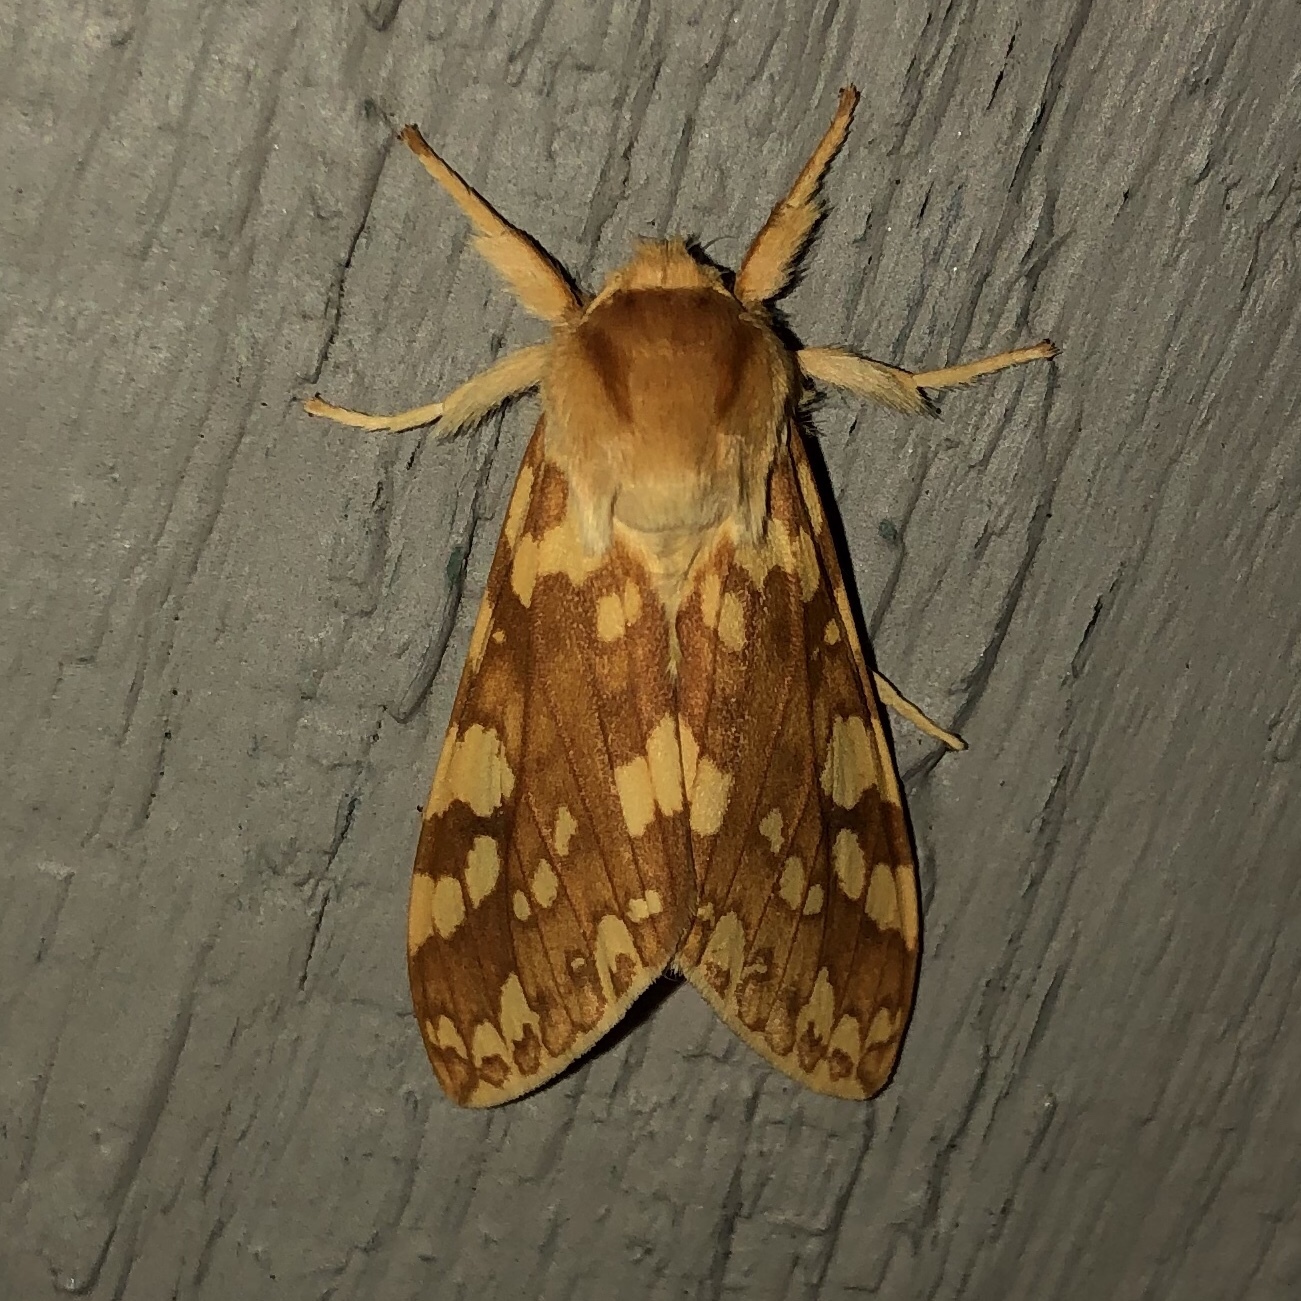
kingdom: Animalia
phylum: Arthropoda
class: Insecta
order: Lepidoptera
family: Erebidae
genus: Lophocampa
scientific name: Lophocampa maculata
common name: Spotted tussock moth
